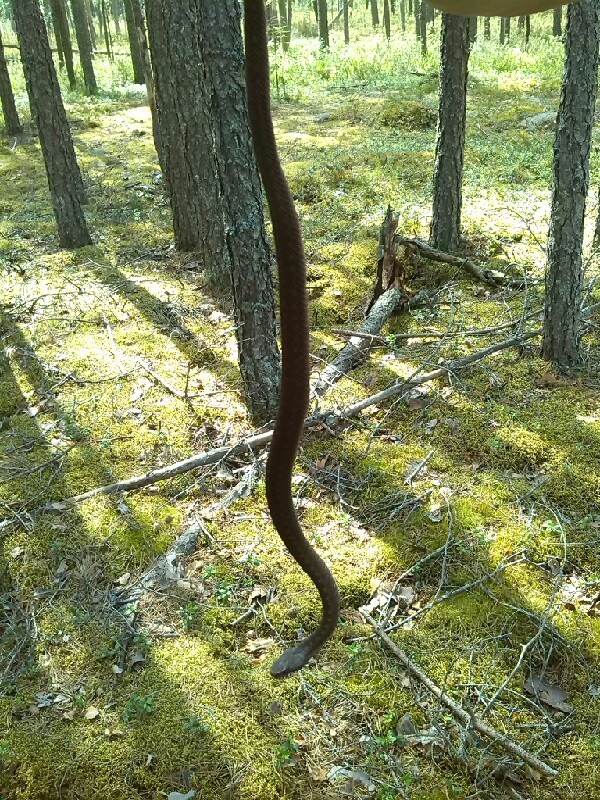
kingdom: Animalia
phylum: Chordata
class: Squamata
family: Viperidae
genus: Vipera
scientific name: Vipera berus
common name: Adder
